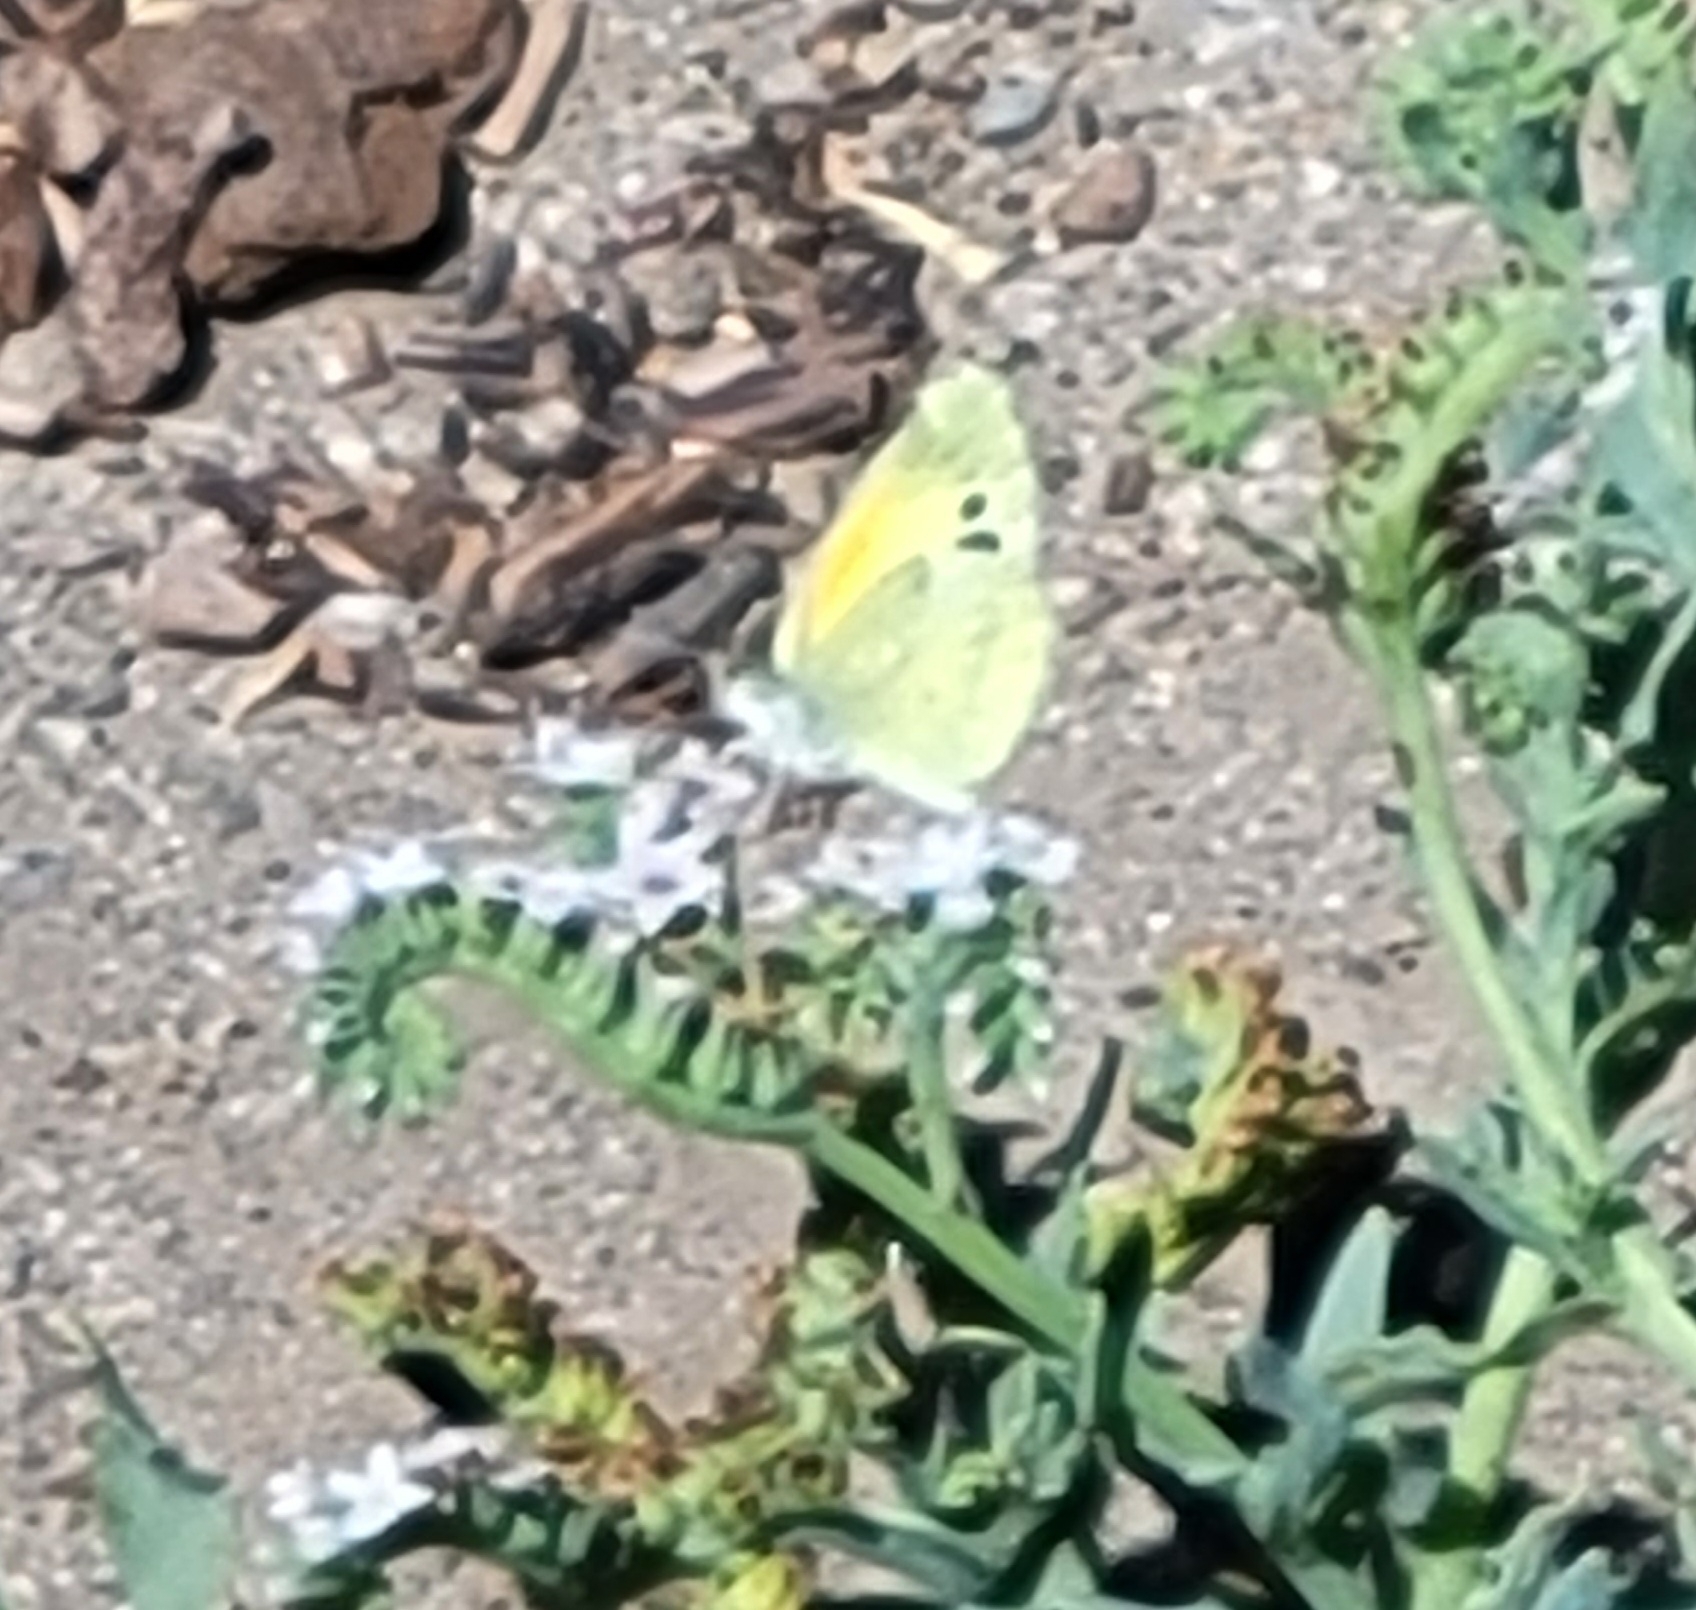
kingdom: Animalia
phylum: Arthropoda
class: Insecta
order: Lepidoptera
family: Pieridae
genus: Nathalis
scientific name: Nathalis iole
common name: Dainty sulphur
